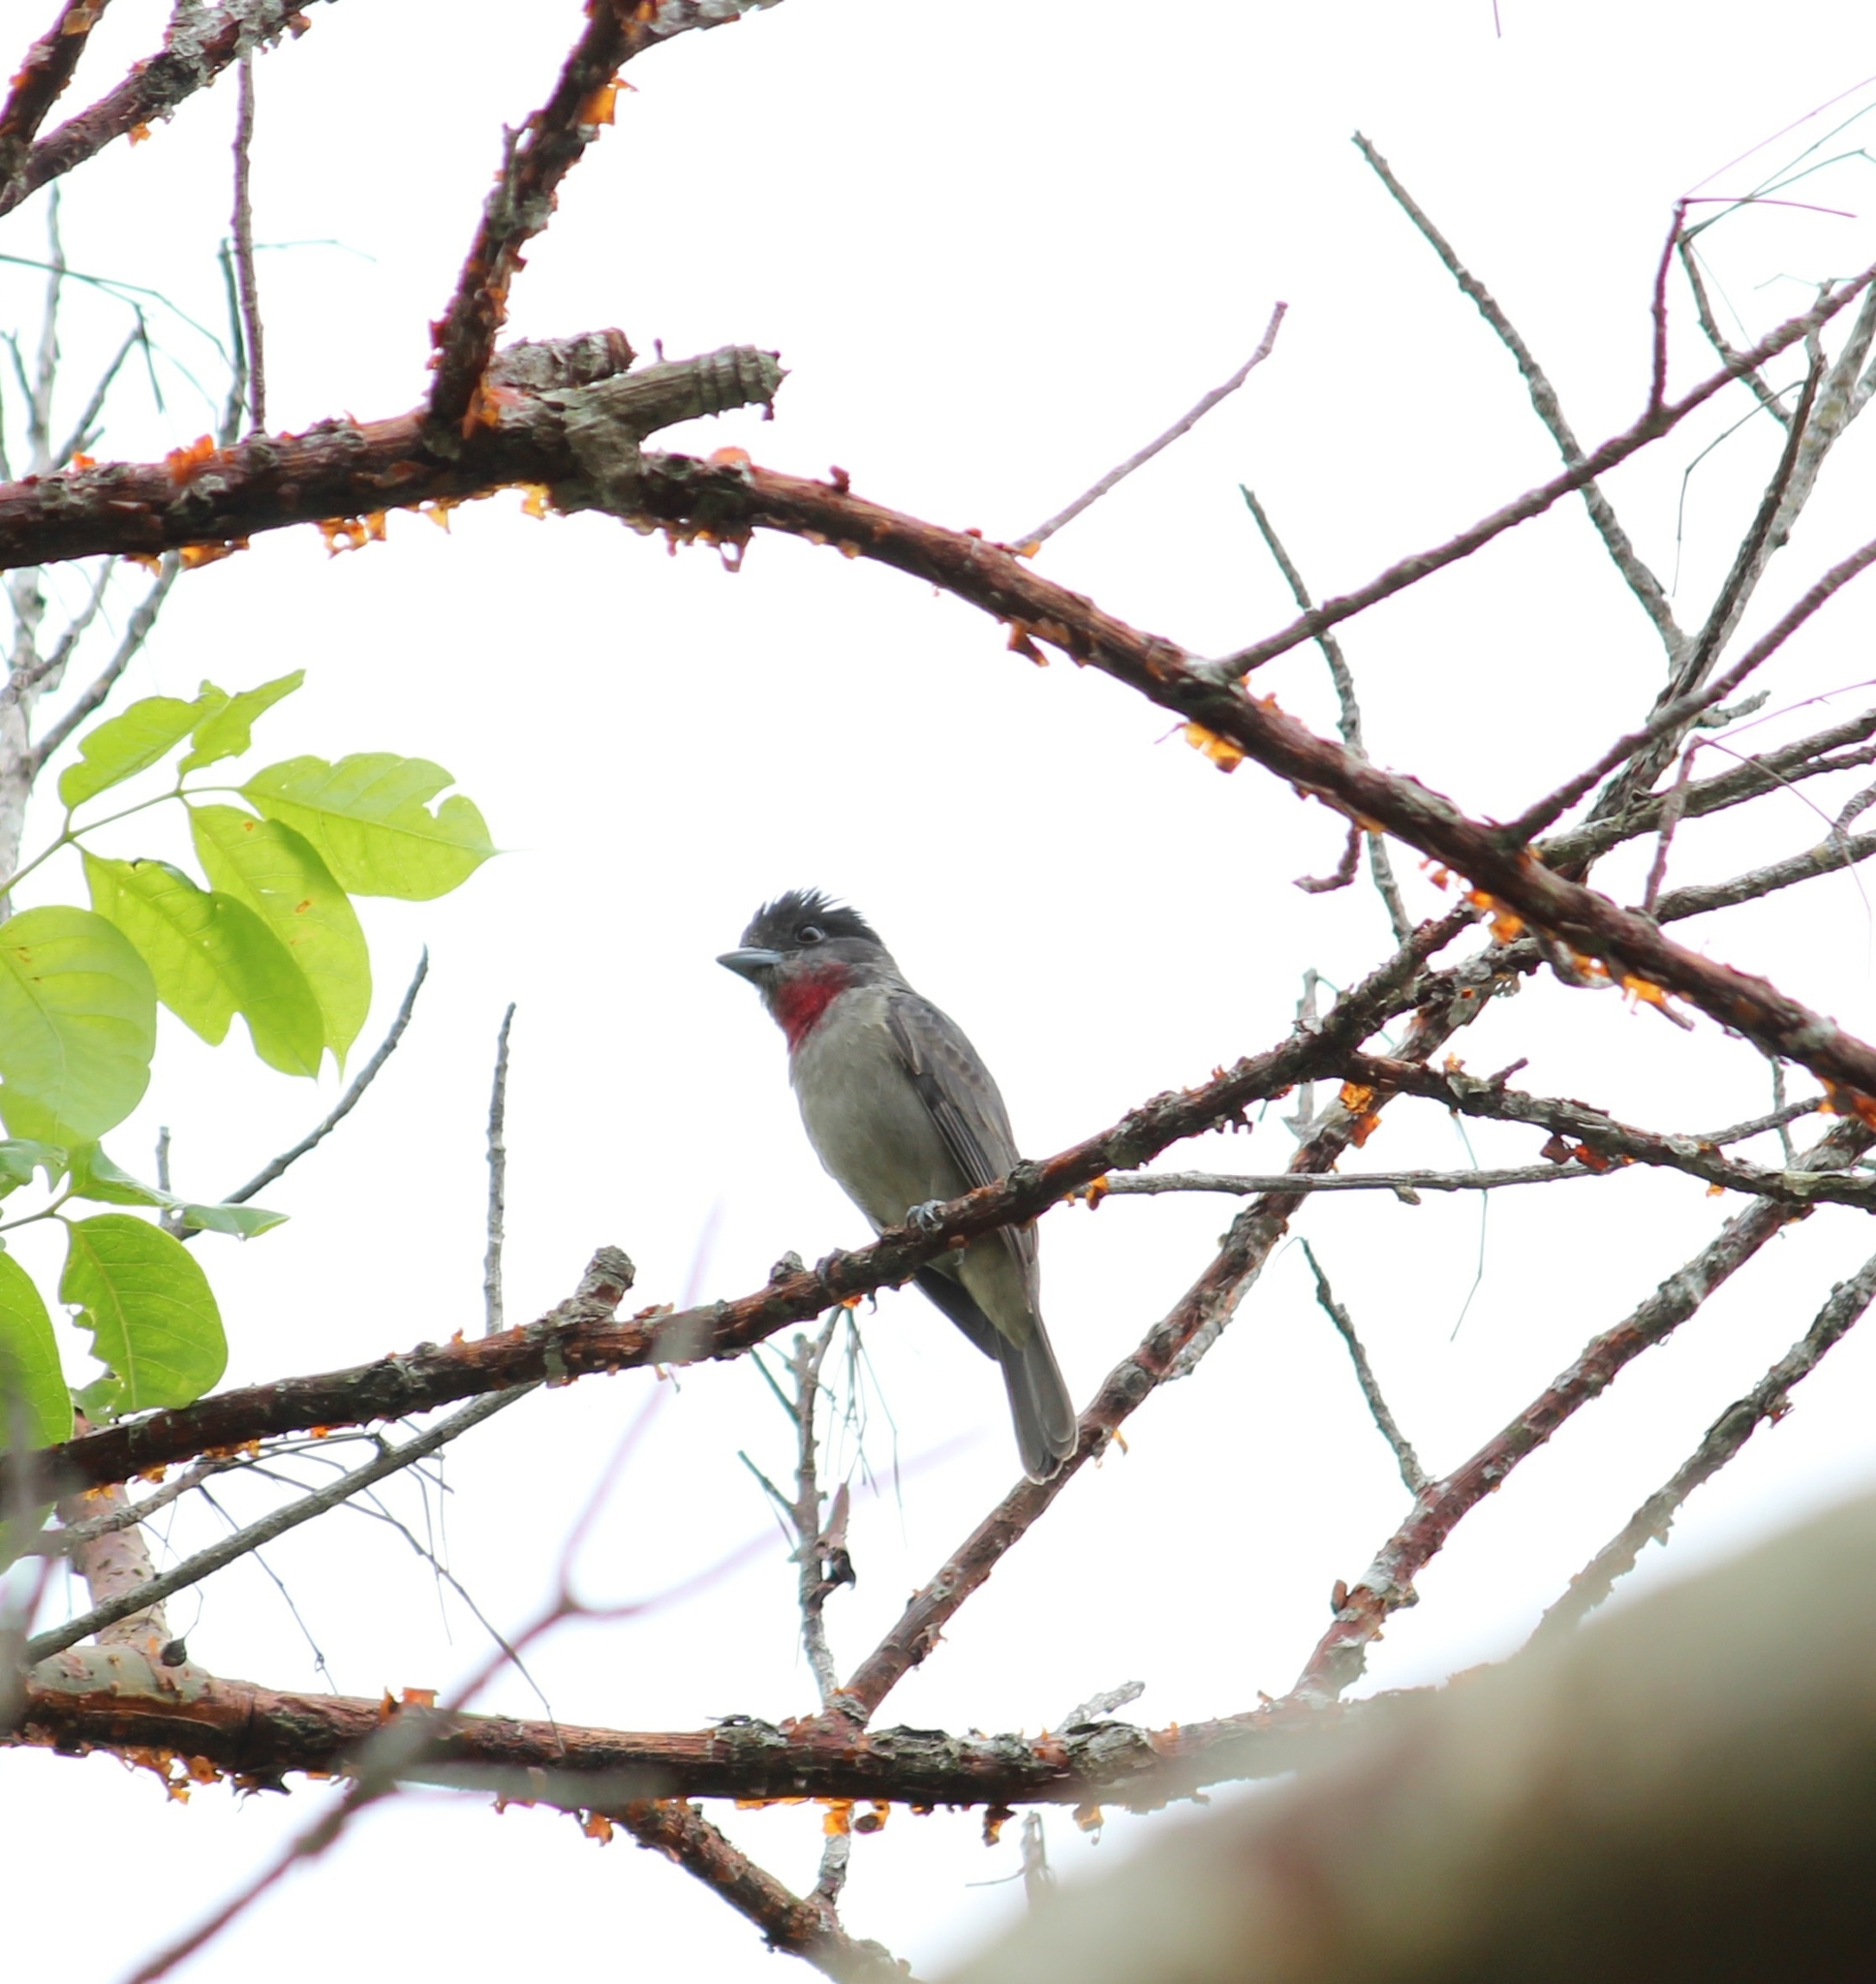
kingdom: Animalia
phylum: Chordata
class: Aves
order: Passeriformes
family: Cotingidae
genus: Pachyramphus
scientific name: Pachyramphus aglaiae
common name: Rose-throated becard
